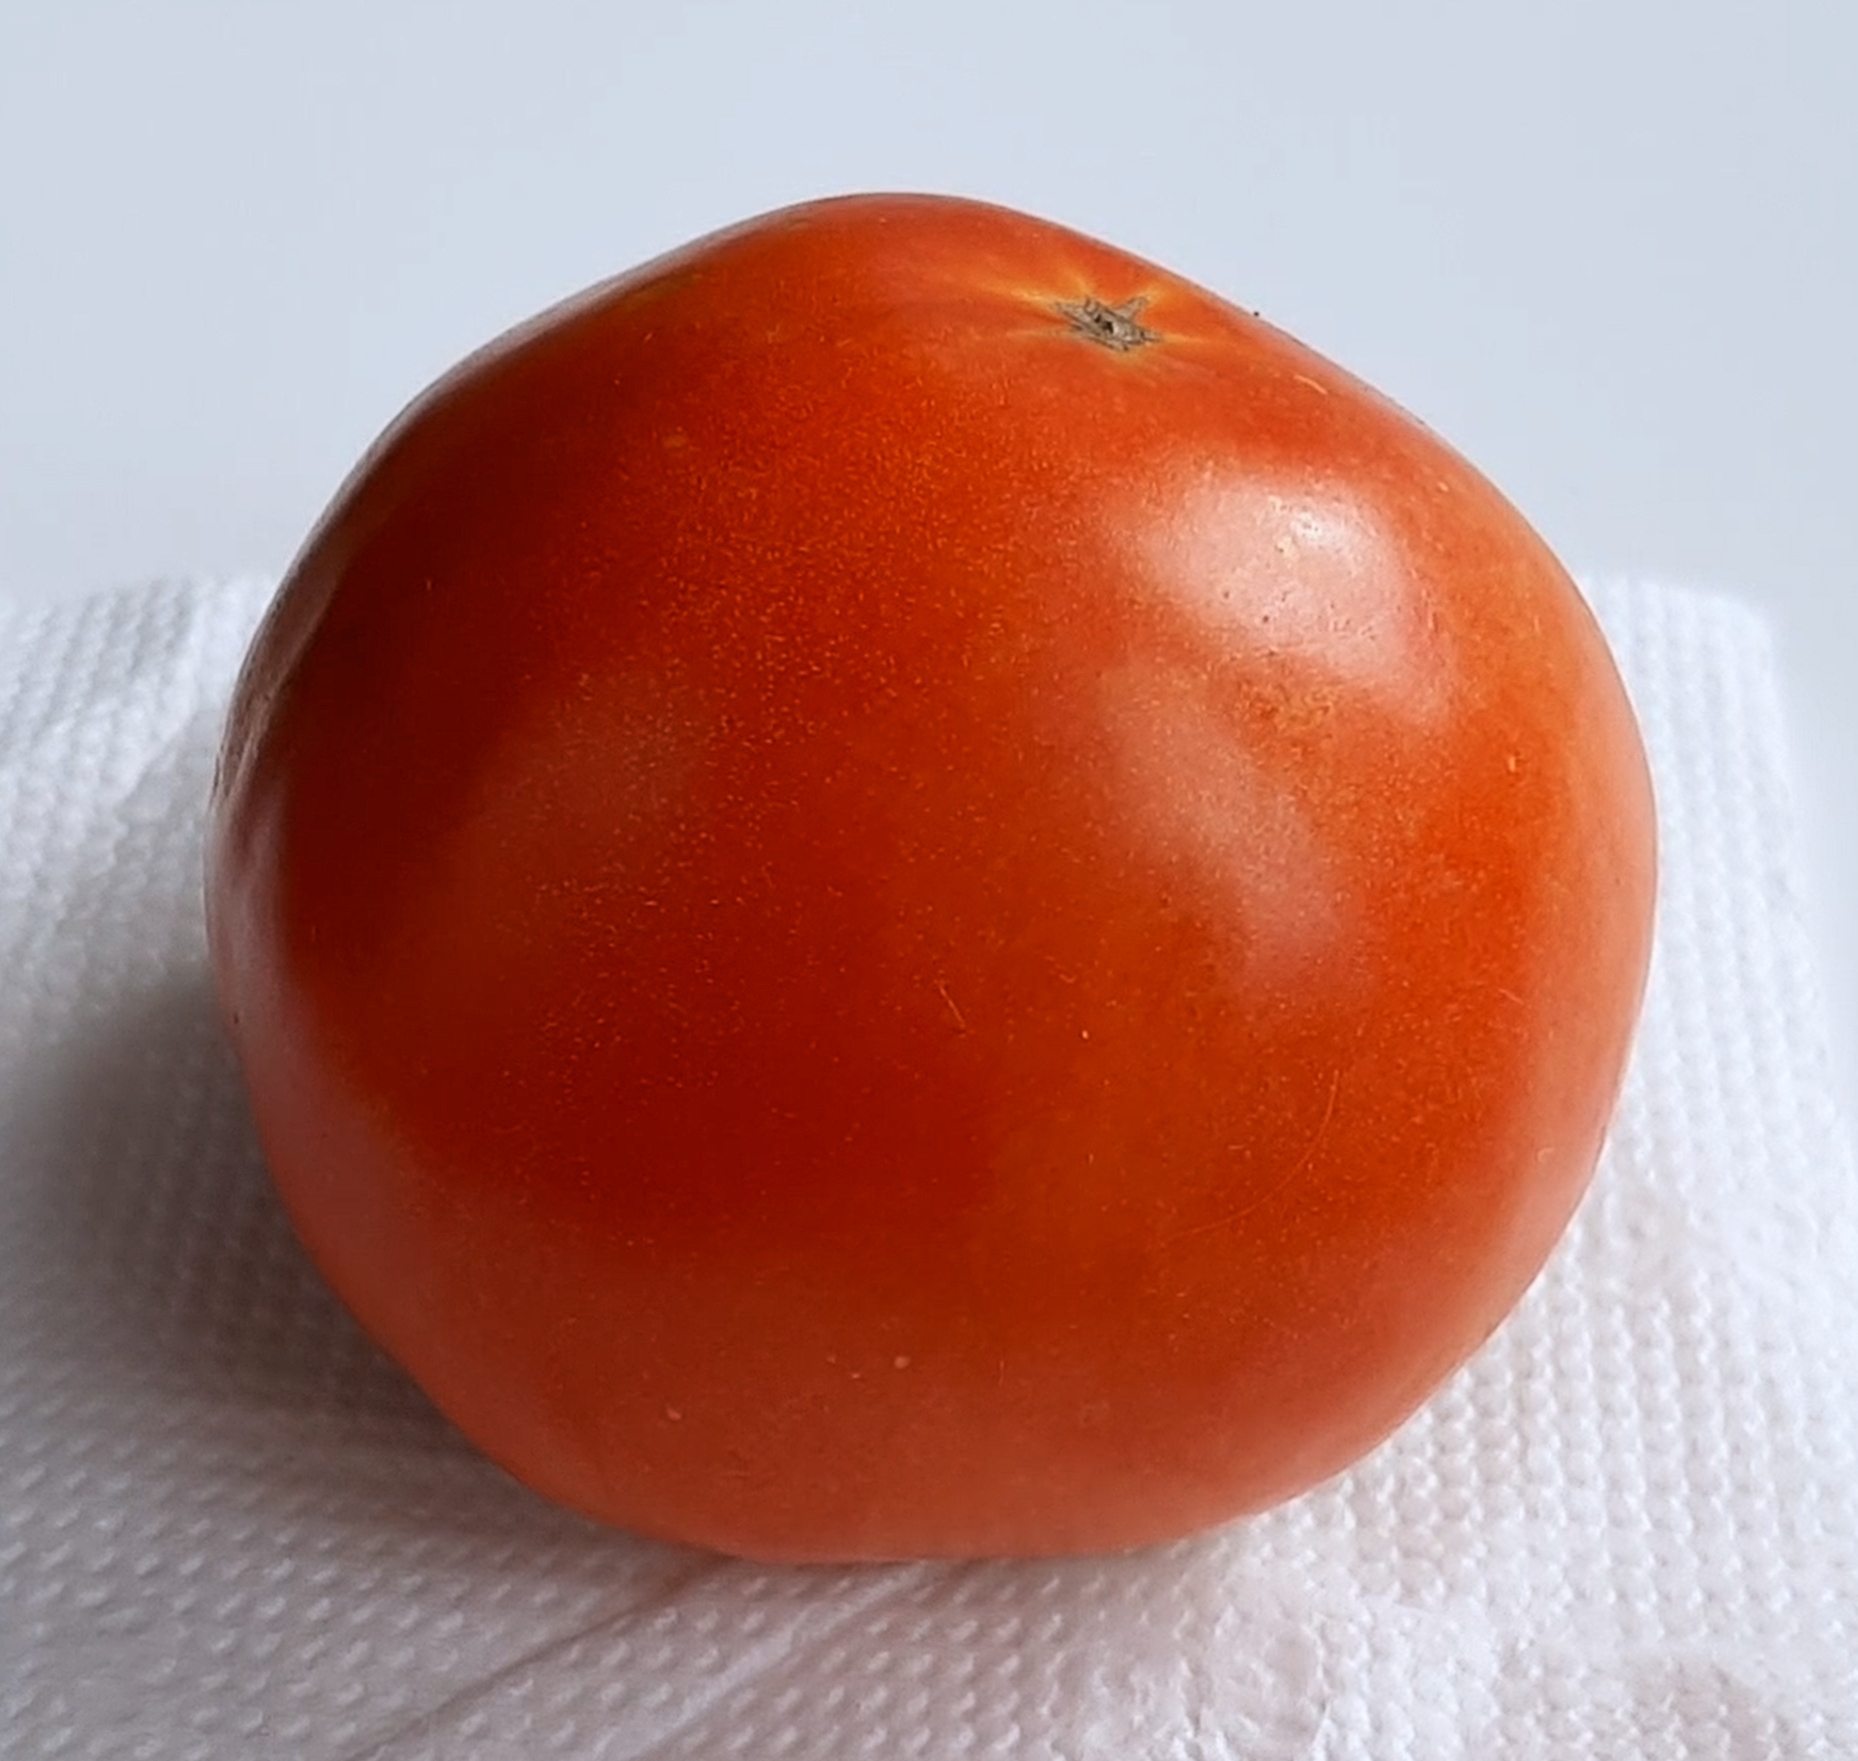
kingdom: Chromista
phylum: Oomycota
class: Peronosporea
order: Peronosporales
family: Peronosporaceae
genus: Phytophthora
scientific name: Phytophthora infestans
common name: Potato blight
